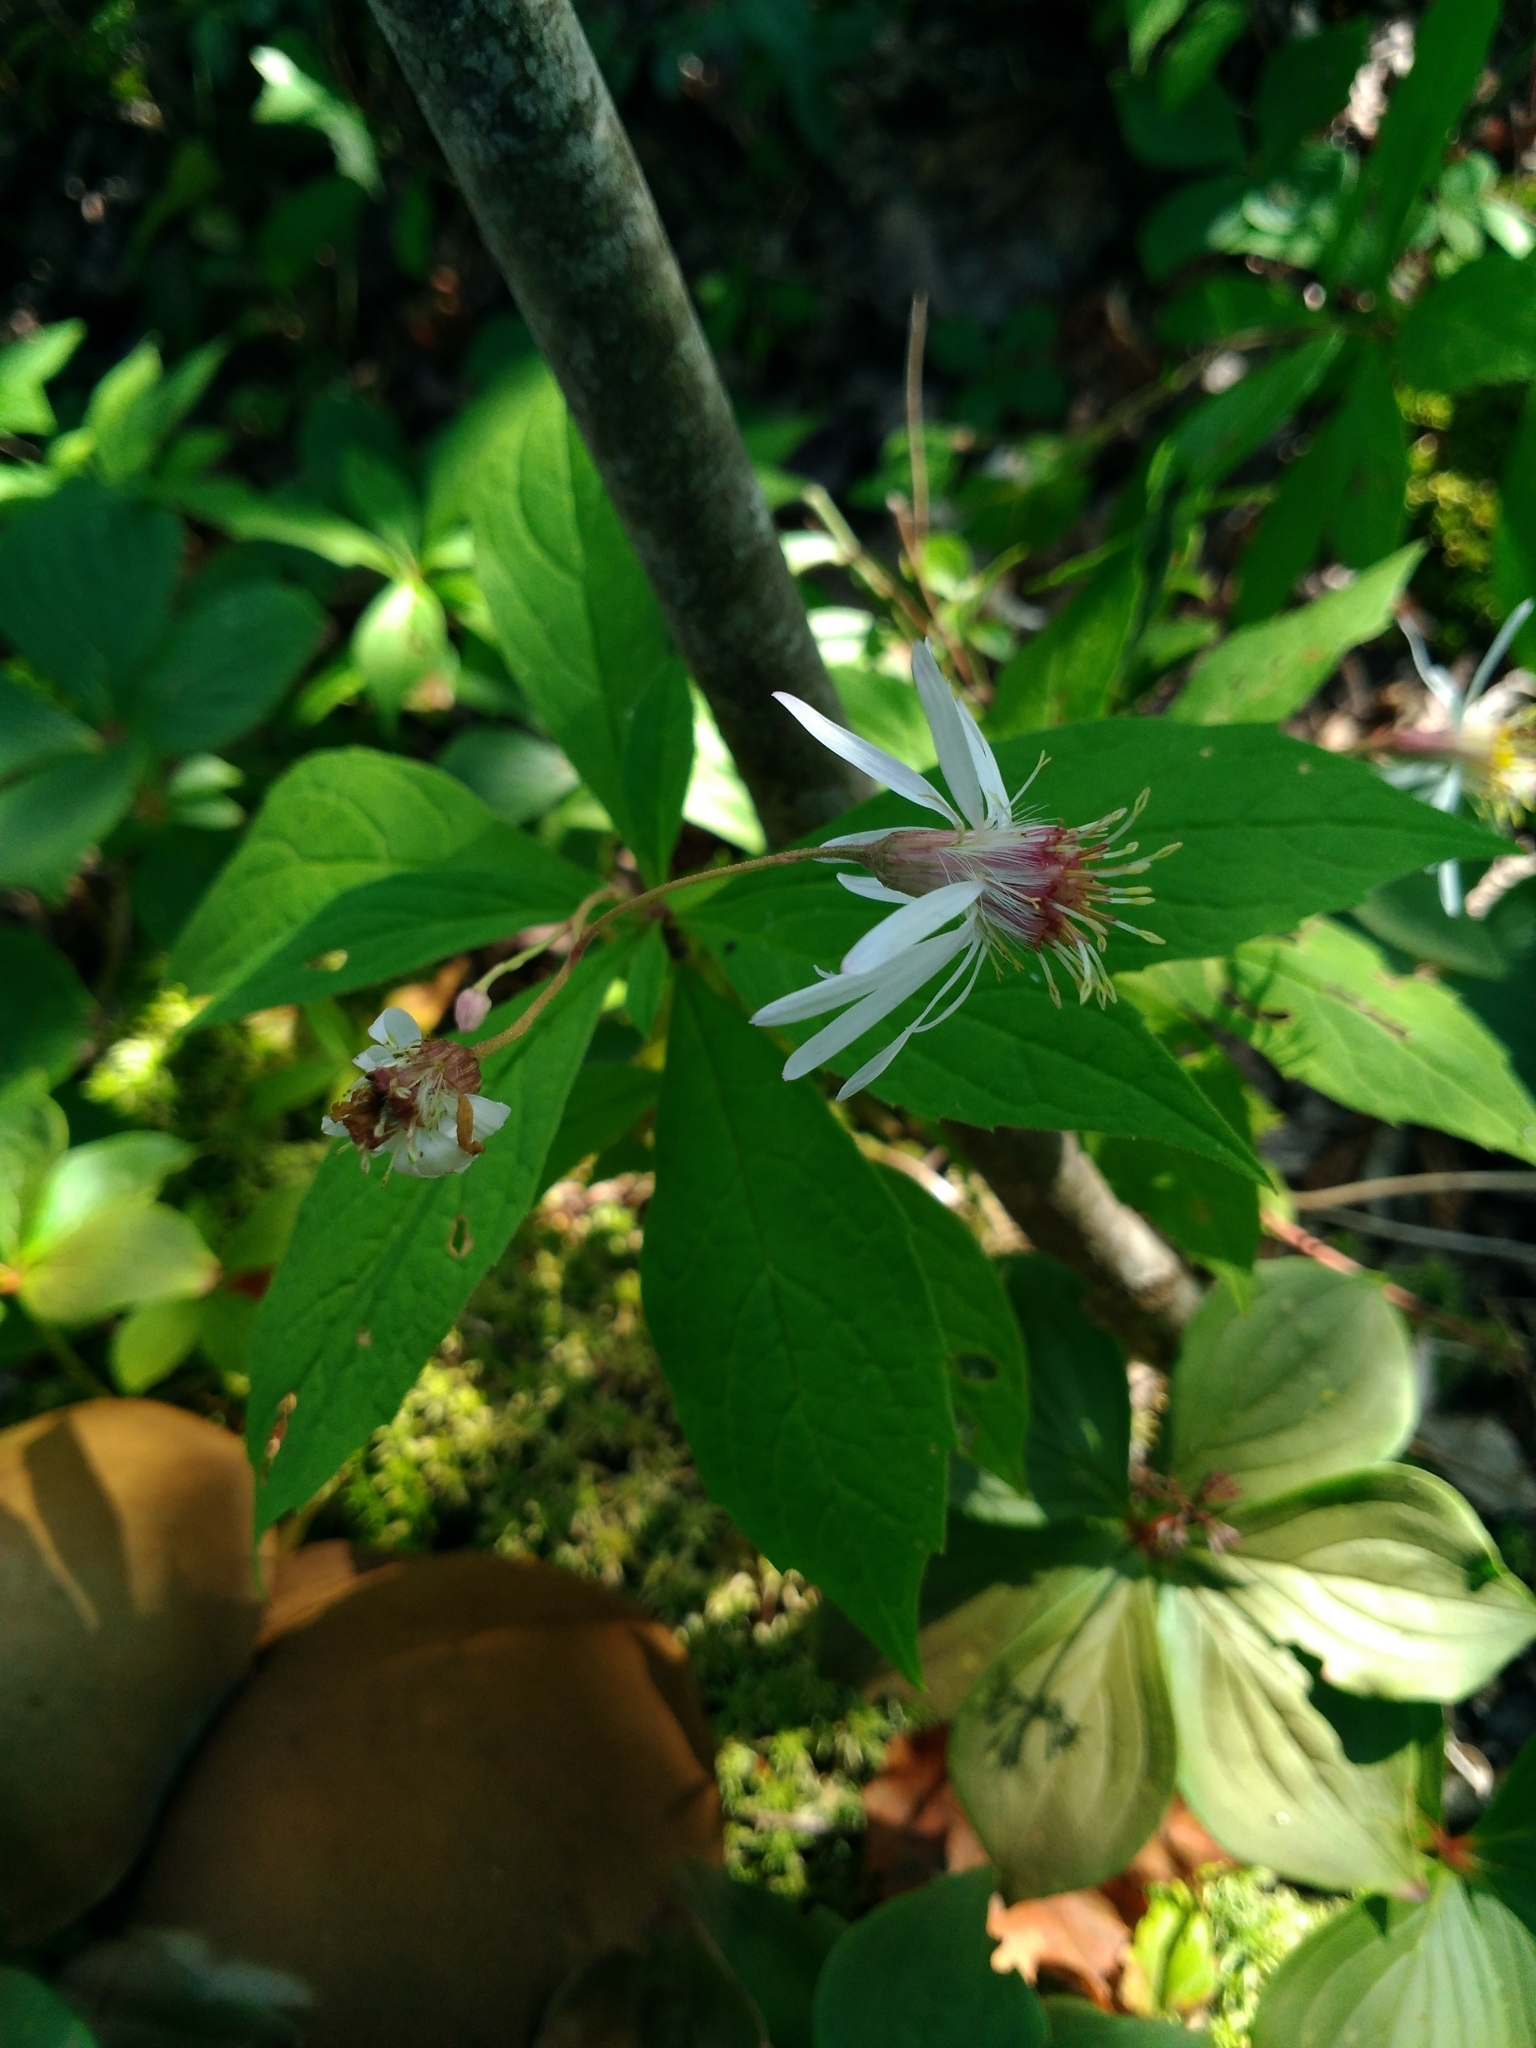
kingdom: Plantae
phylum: Tracheophyta
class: Magnoliopsida
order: Asterales
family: Asteraceae
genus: Oclemena
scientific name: Oclemena acuminata
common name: Mountain aster
